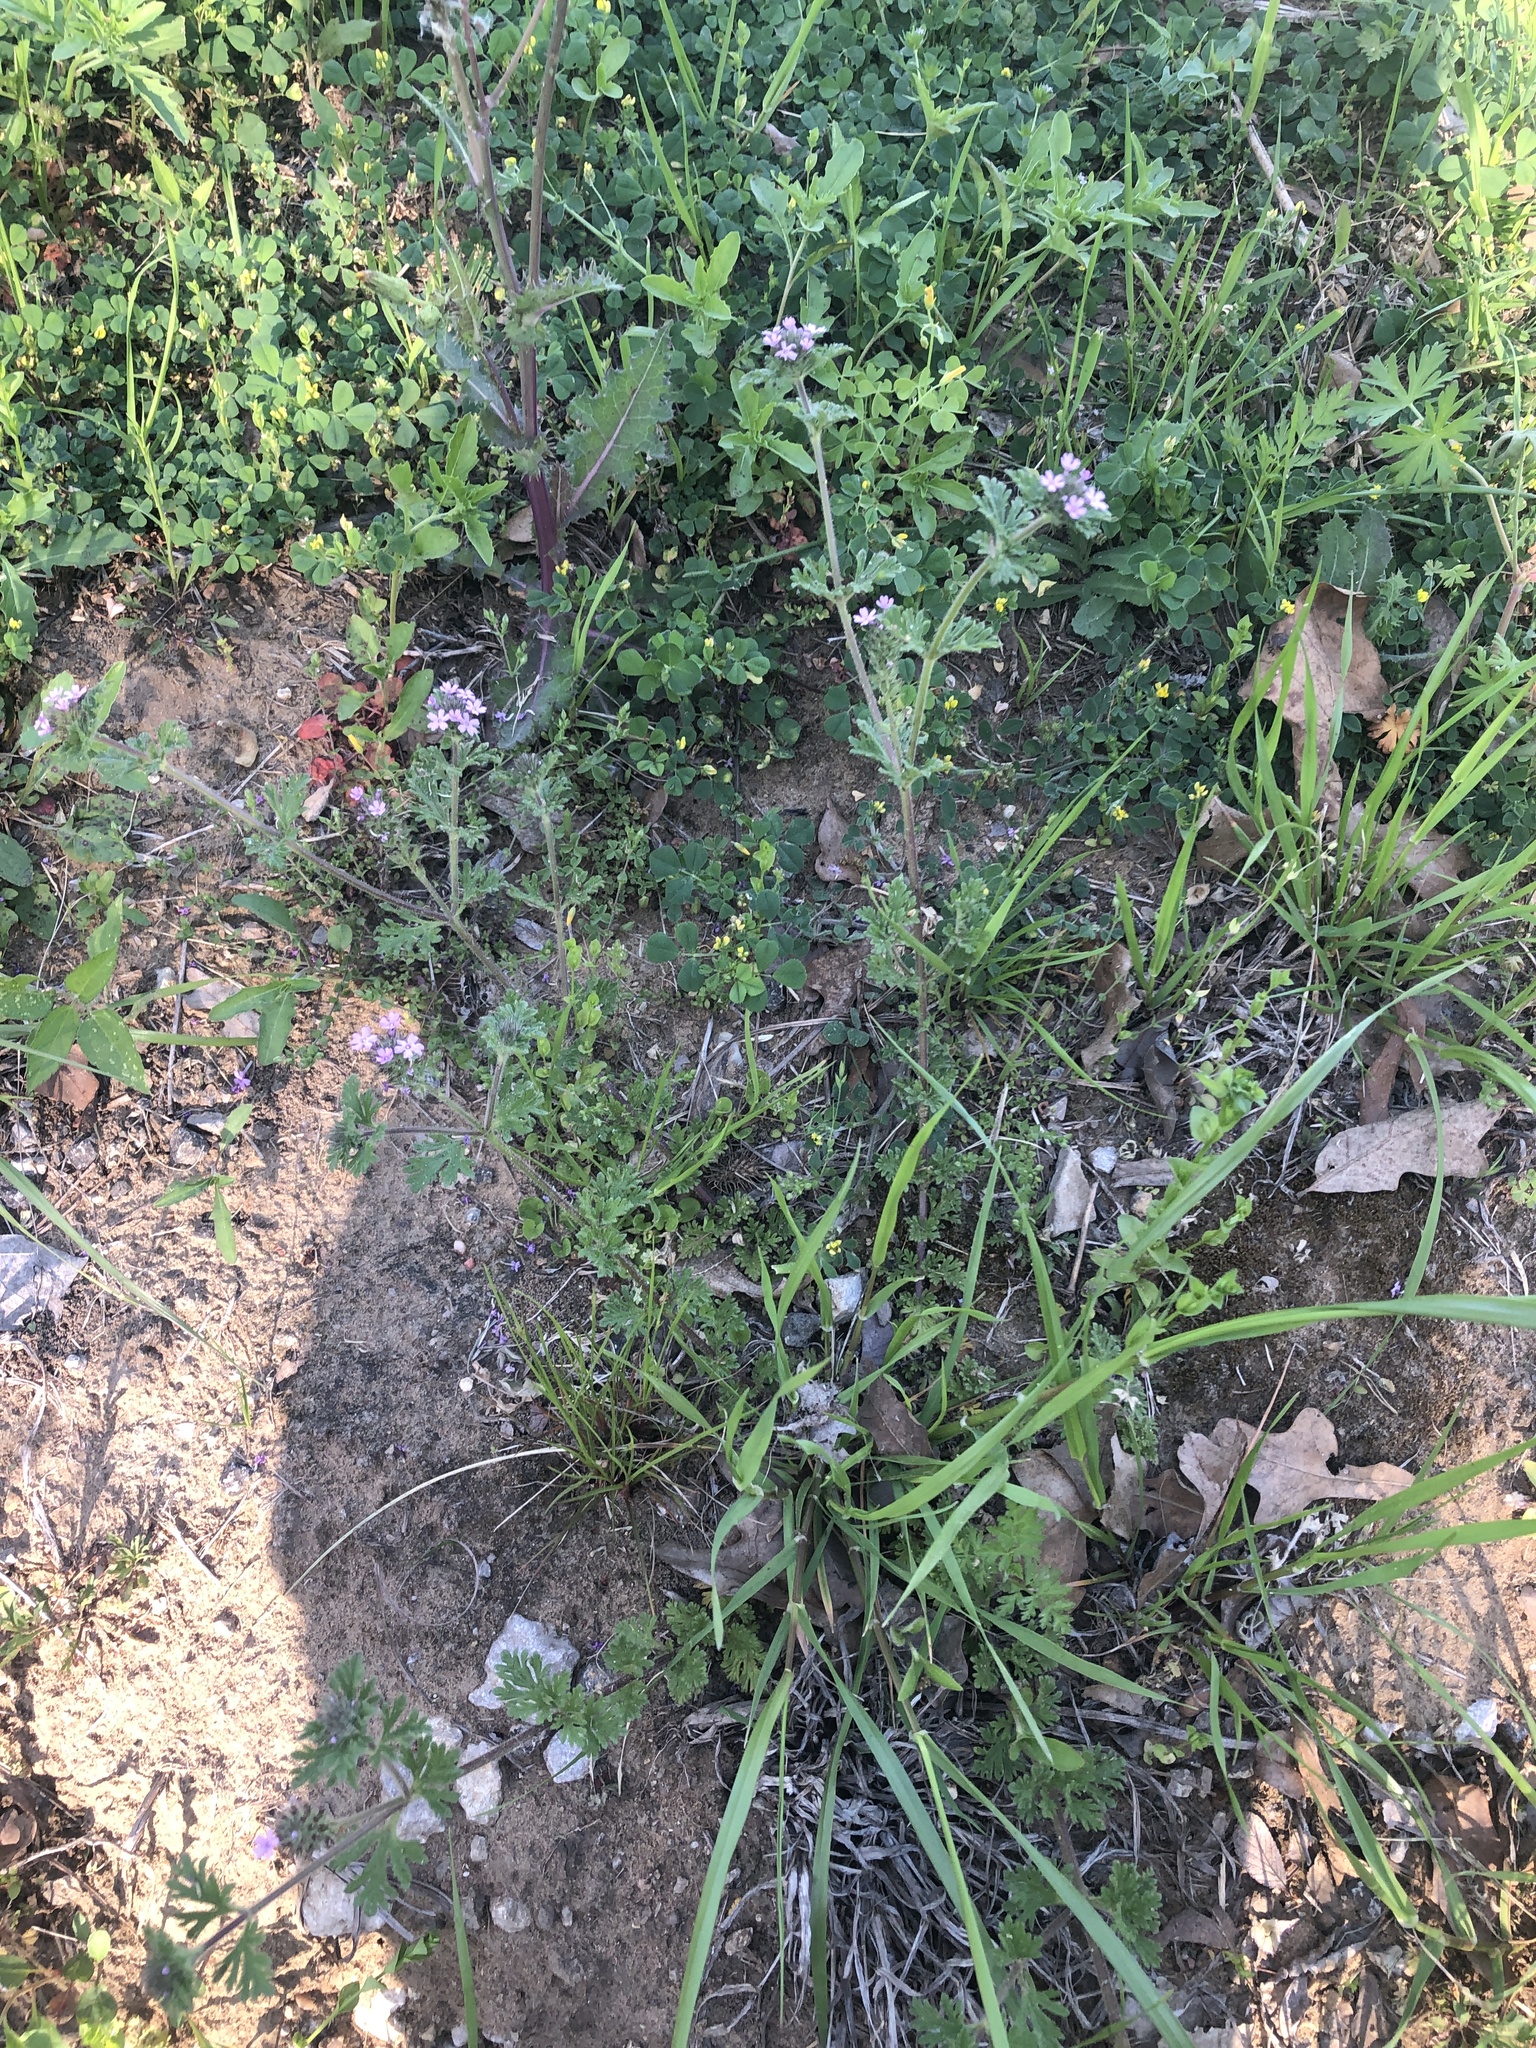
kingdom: Plantae
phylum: Tracheophyta
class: Magnoliopsida
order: Lamiales
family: Verbenaceae
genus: Verbena
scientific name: Verbena pumila
